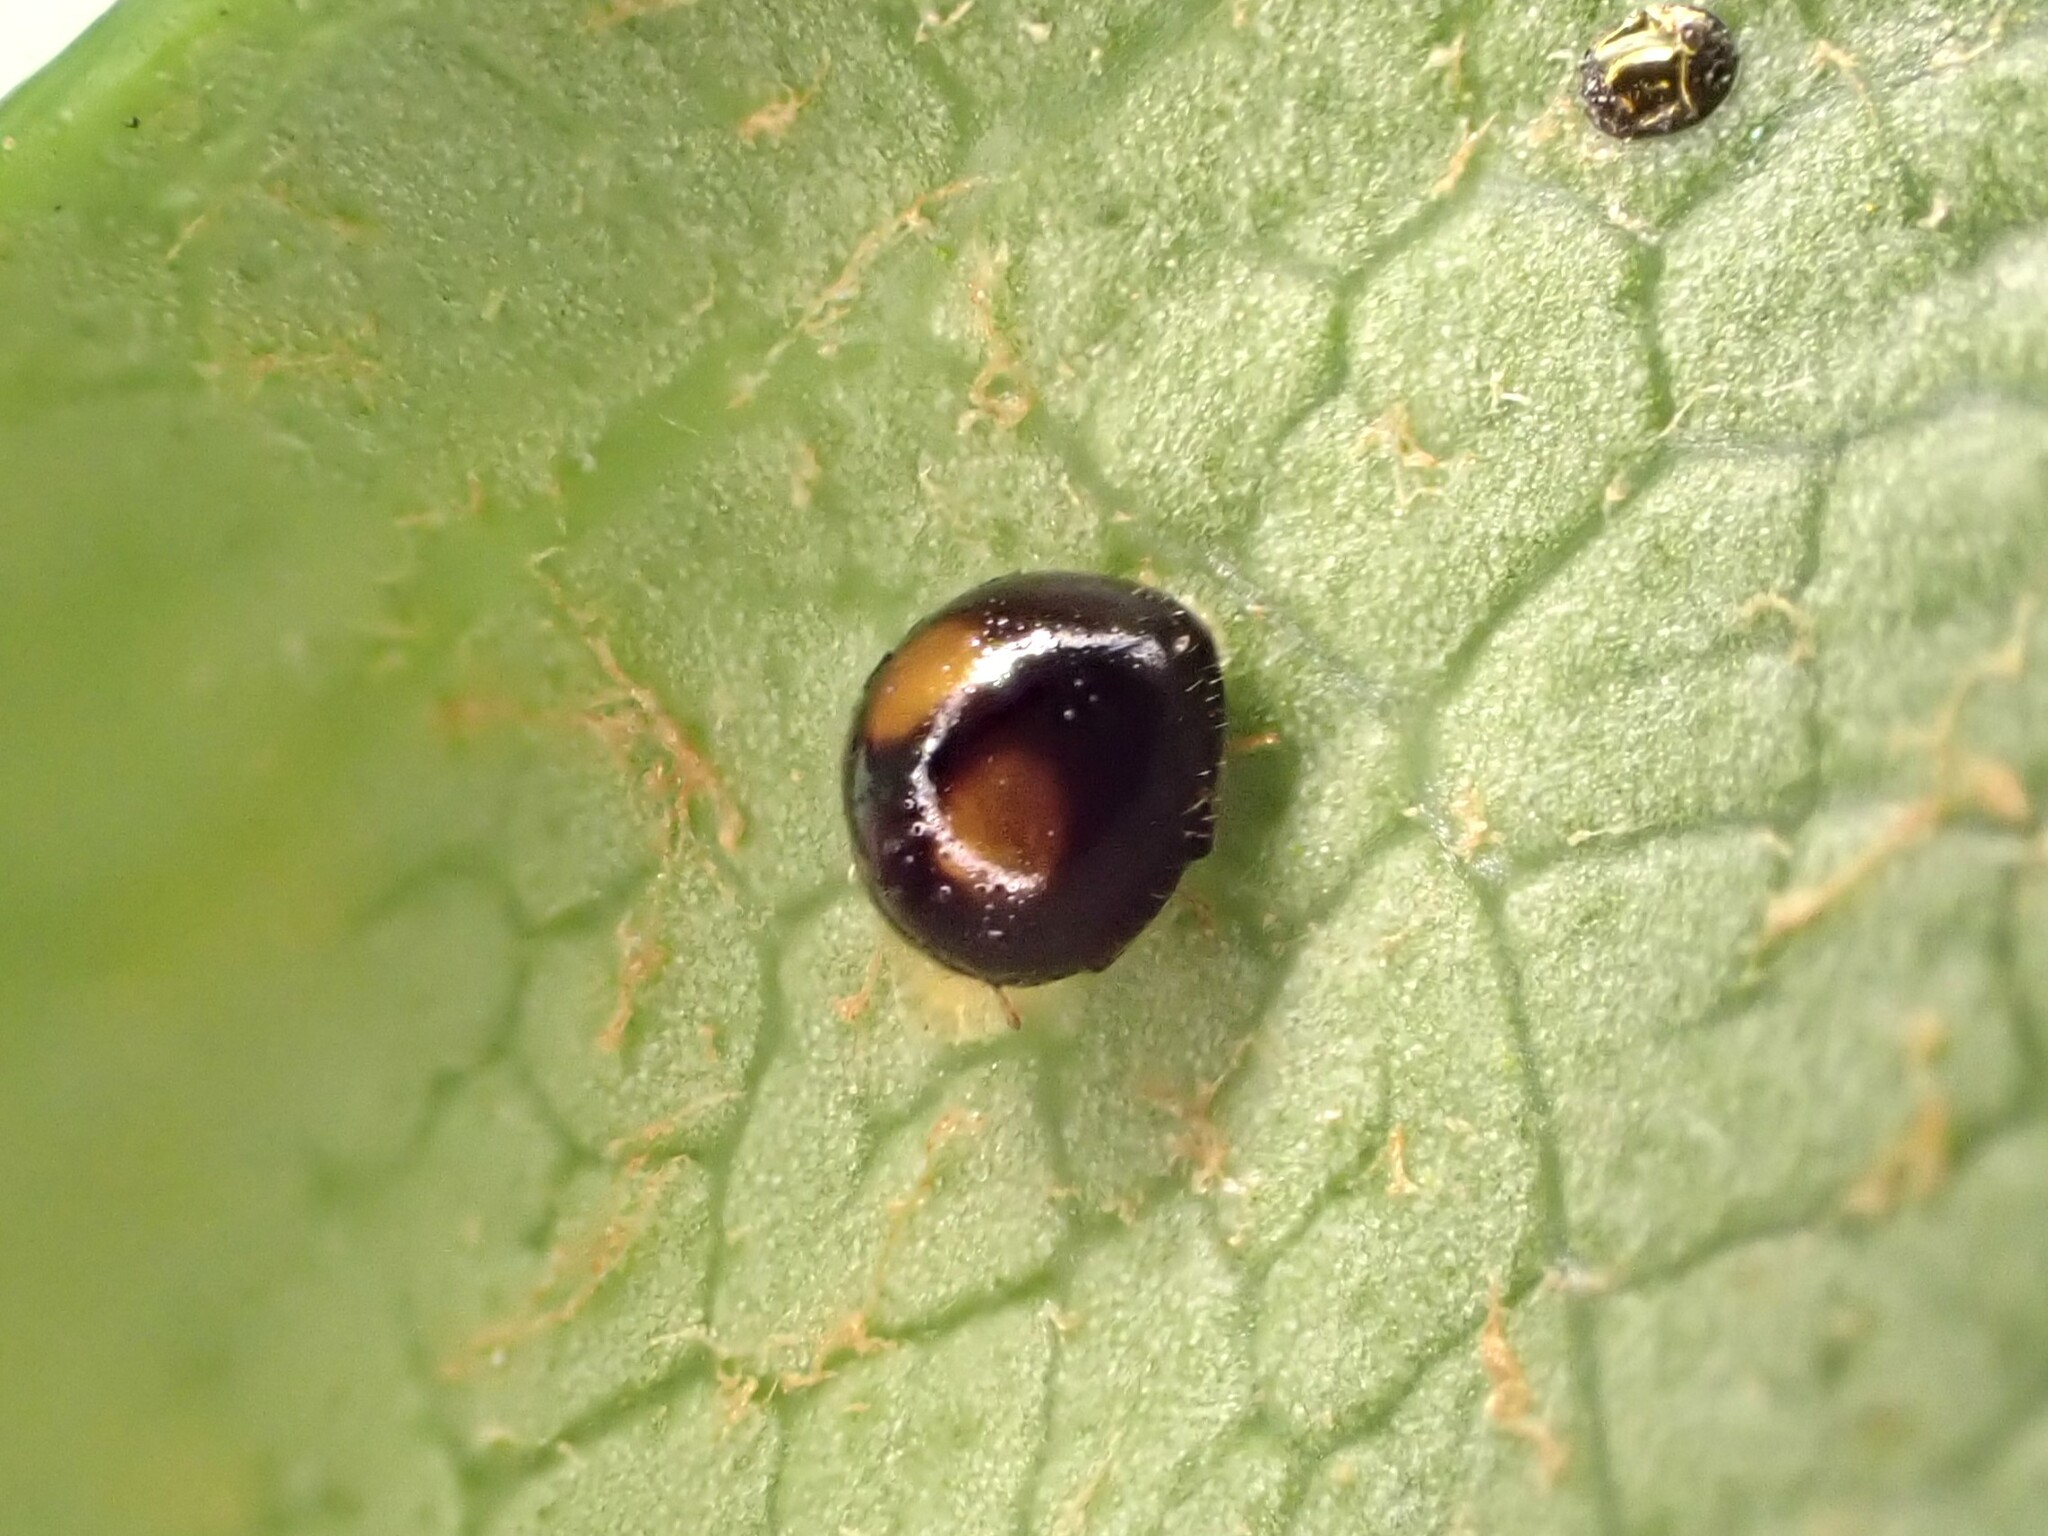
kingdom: Animalia
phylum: Arthropoda
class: Insecta
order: Coleoptera
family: Coccinellidae
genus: Serangium
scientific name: Serangium maculigerum
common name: Lady beetle
